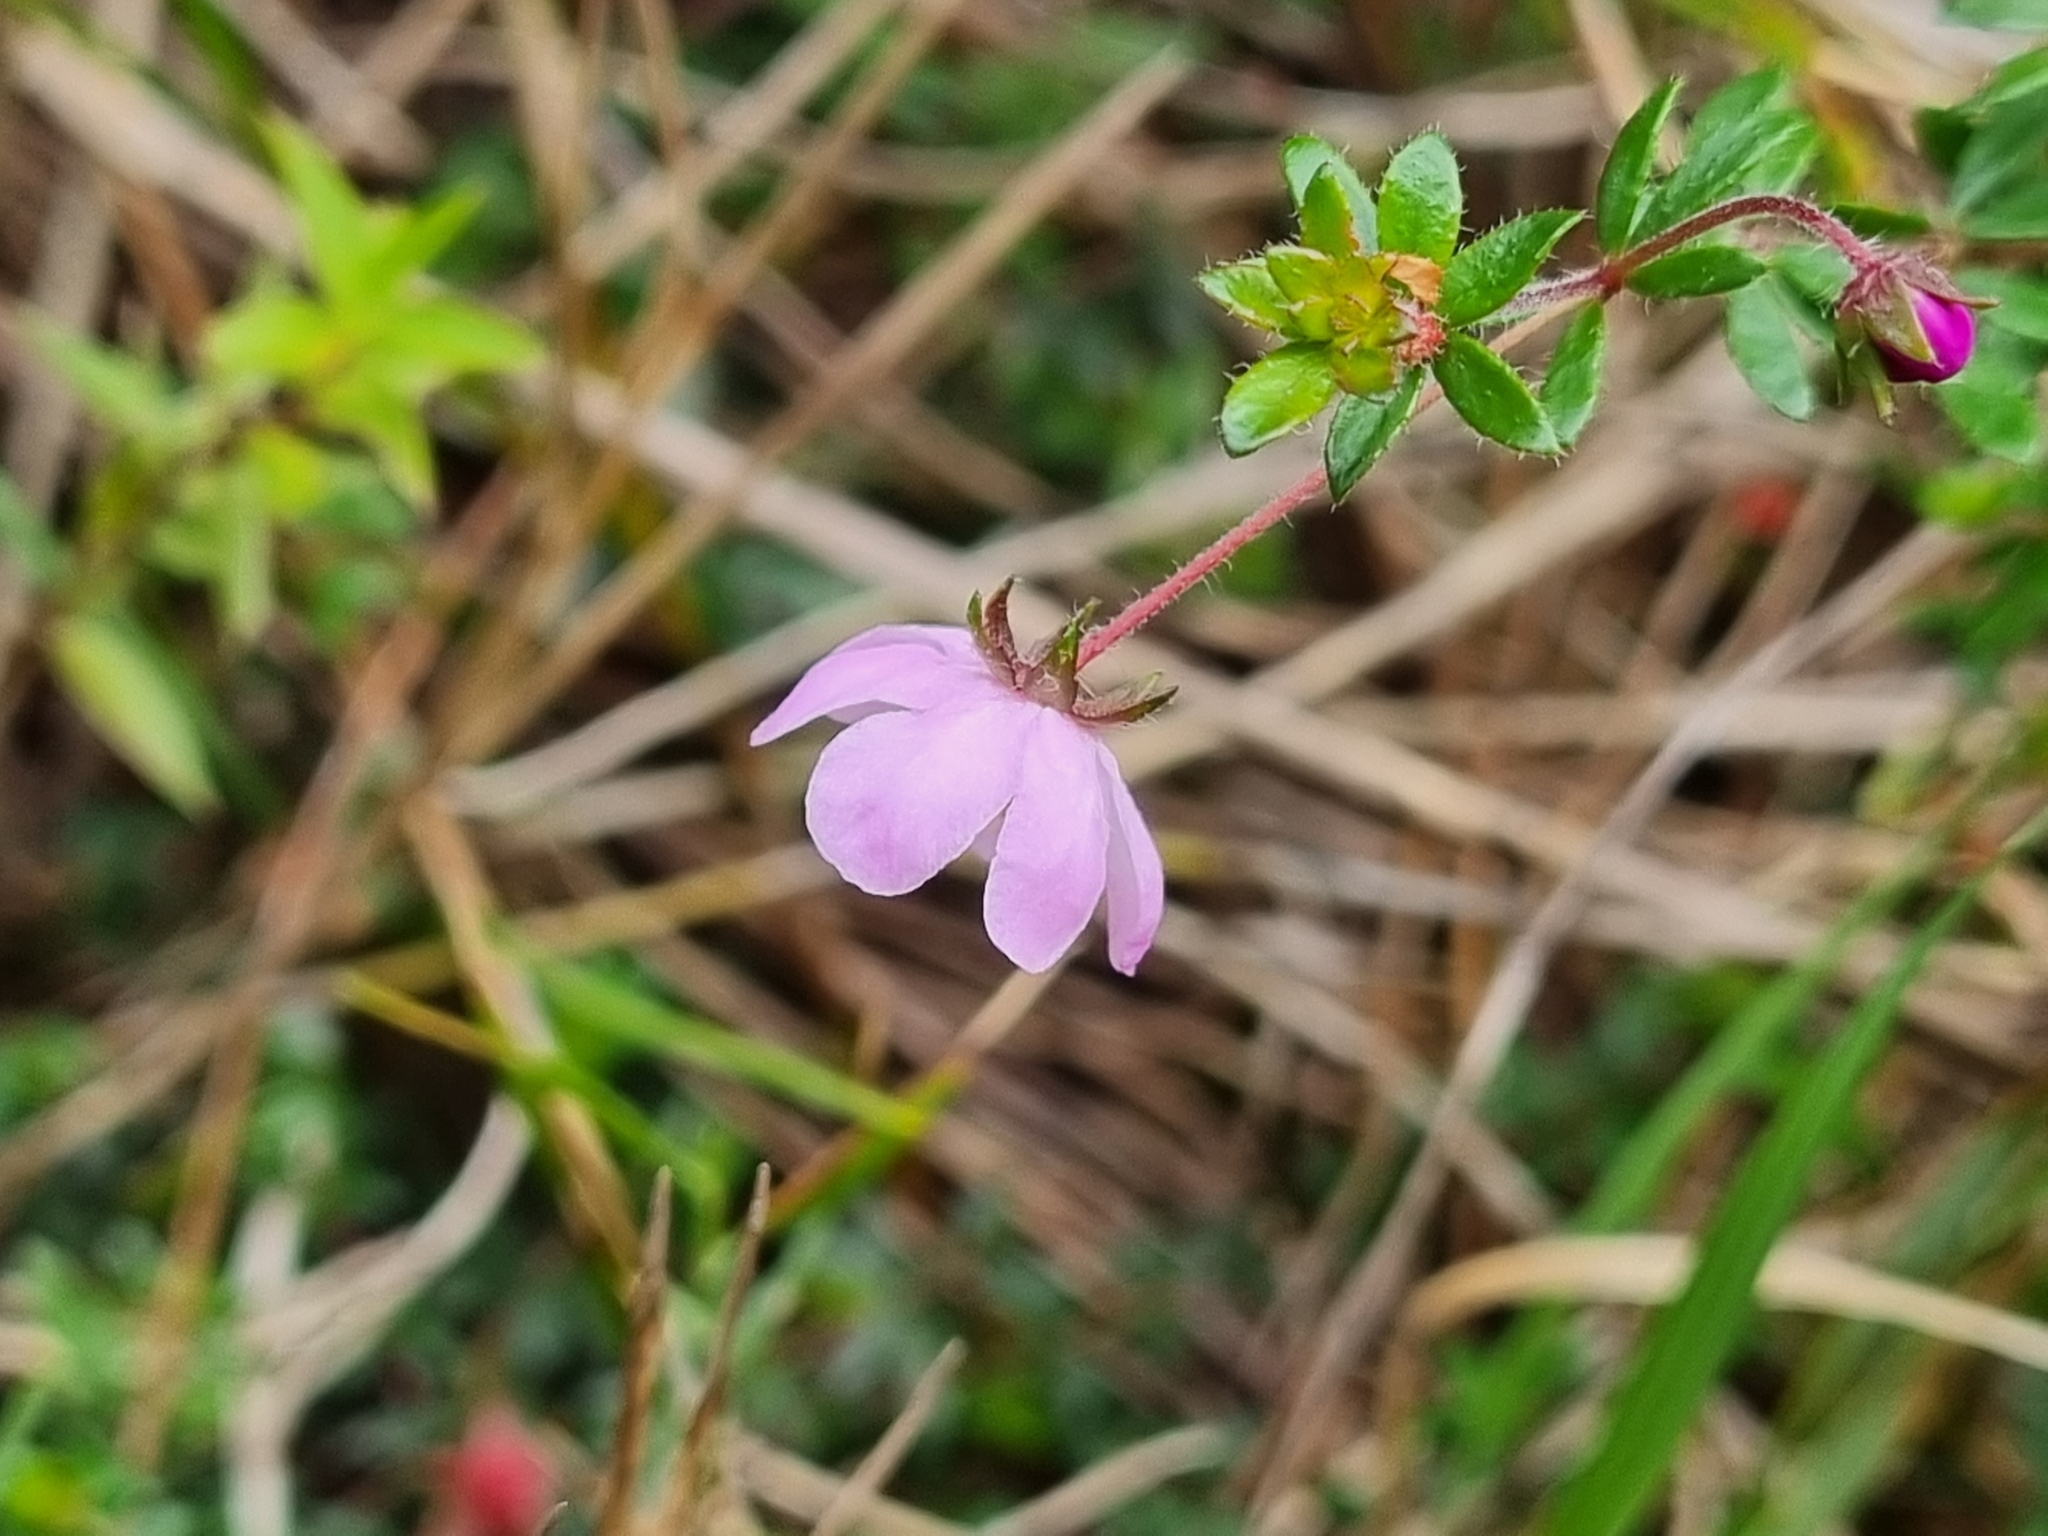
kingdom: Plantae
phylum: Tracheophyta
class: Magnoliopsida
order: Oxalidales
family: Cunoniaceae
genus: Bauera
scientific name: Bauera rubioides
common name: River-rose
